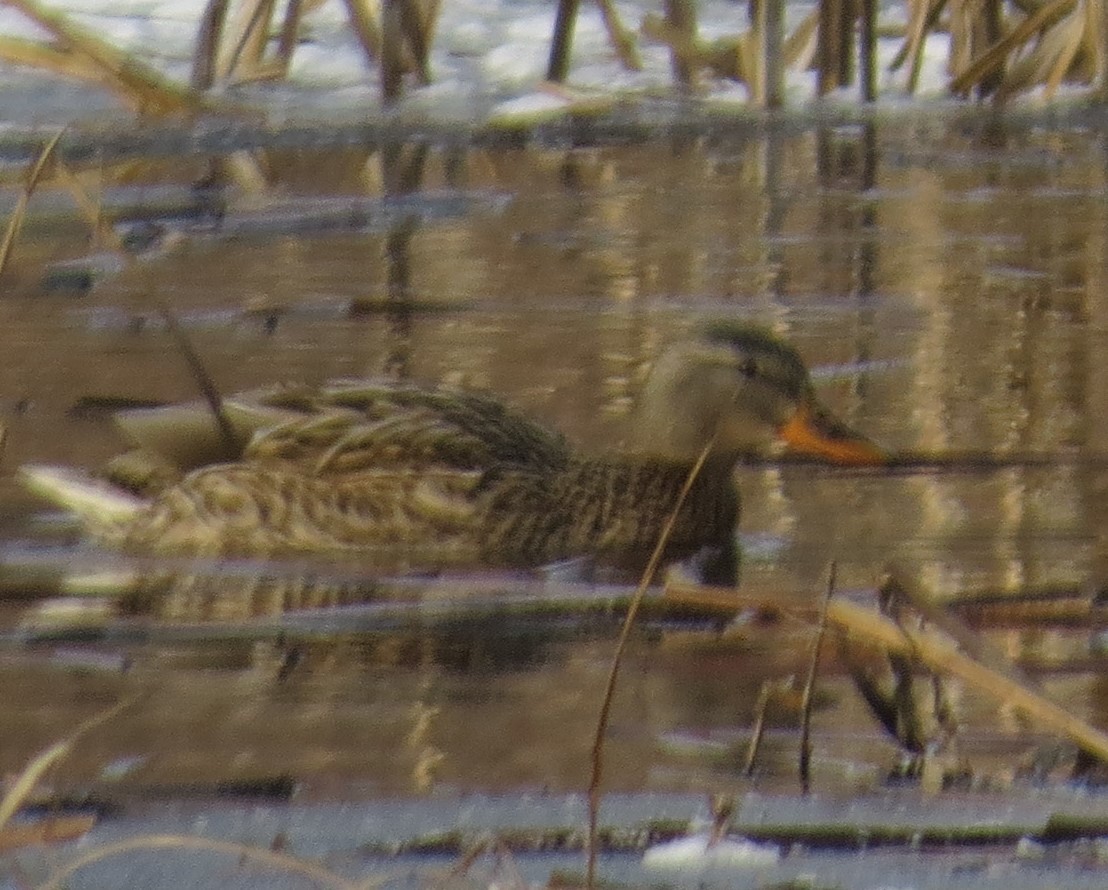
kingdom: Animalia
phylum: Chordata
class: Aves
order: Anseriformes
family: Anatidae
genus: Anas
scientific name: Anas platyrhynchos
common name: Mallard
